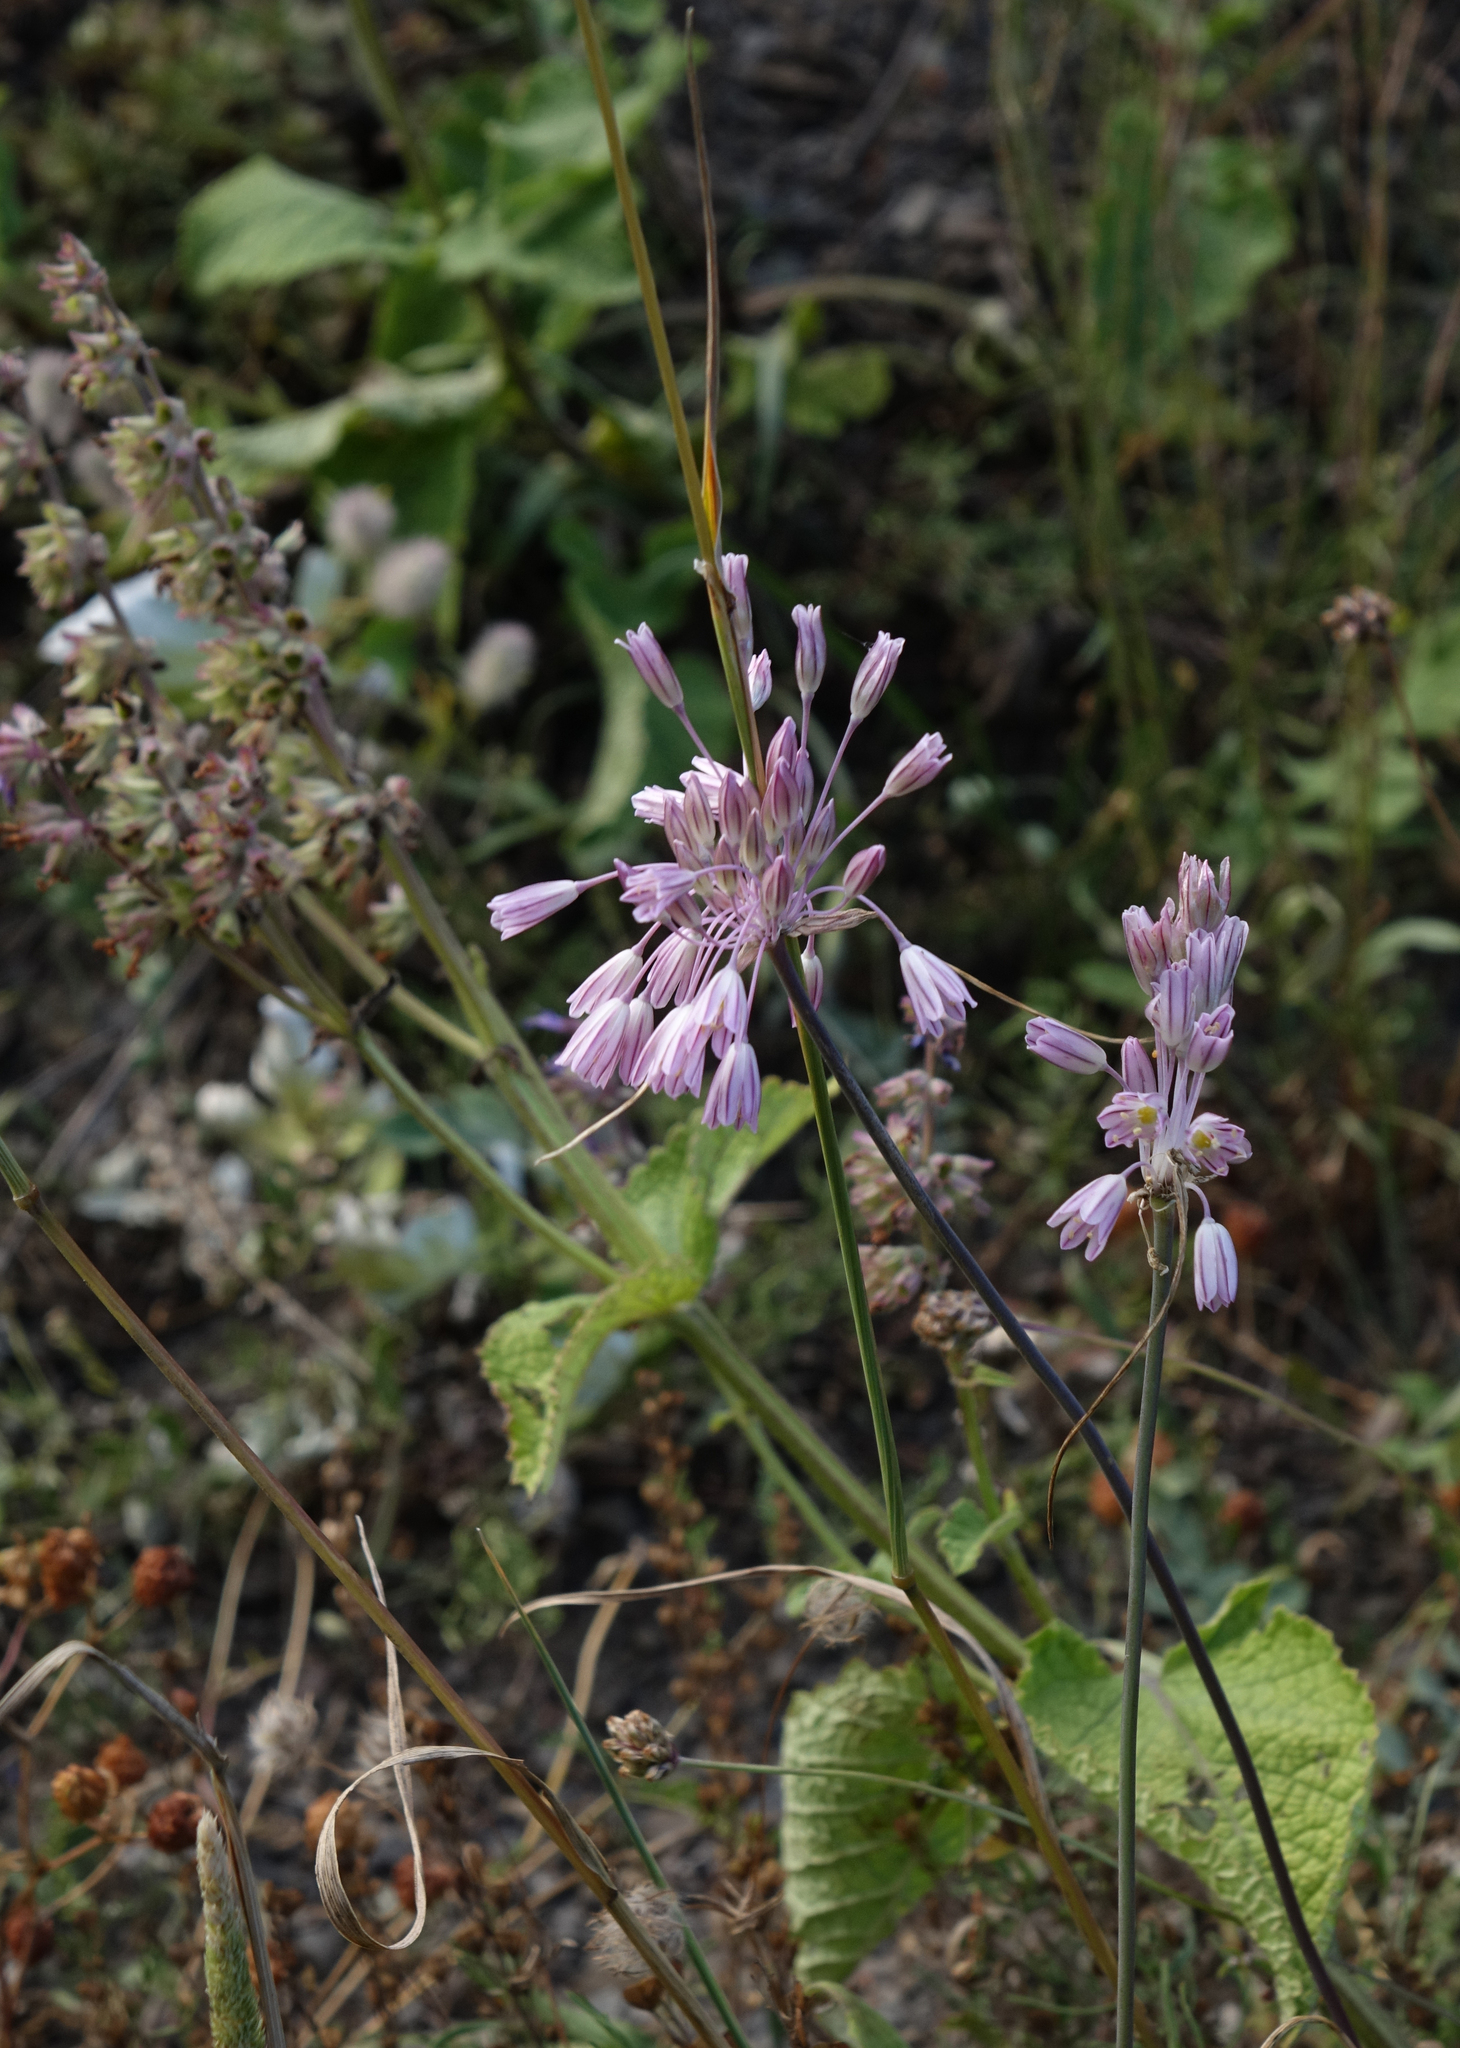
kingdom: Plantae
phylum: Tracheophyta
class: Liliopsida
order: Asparagales
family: Amaryllidaceae
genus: Allium
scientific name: Allium kunthianum
